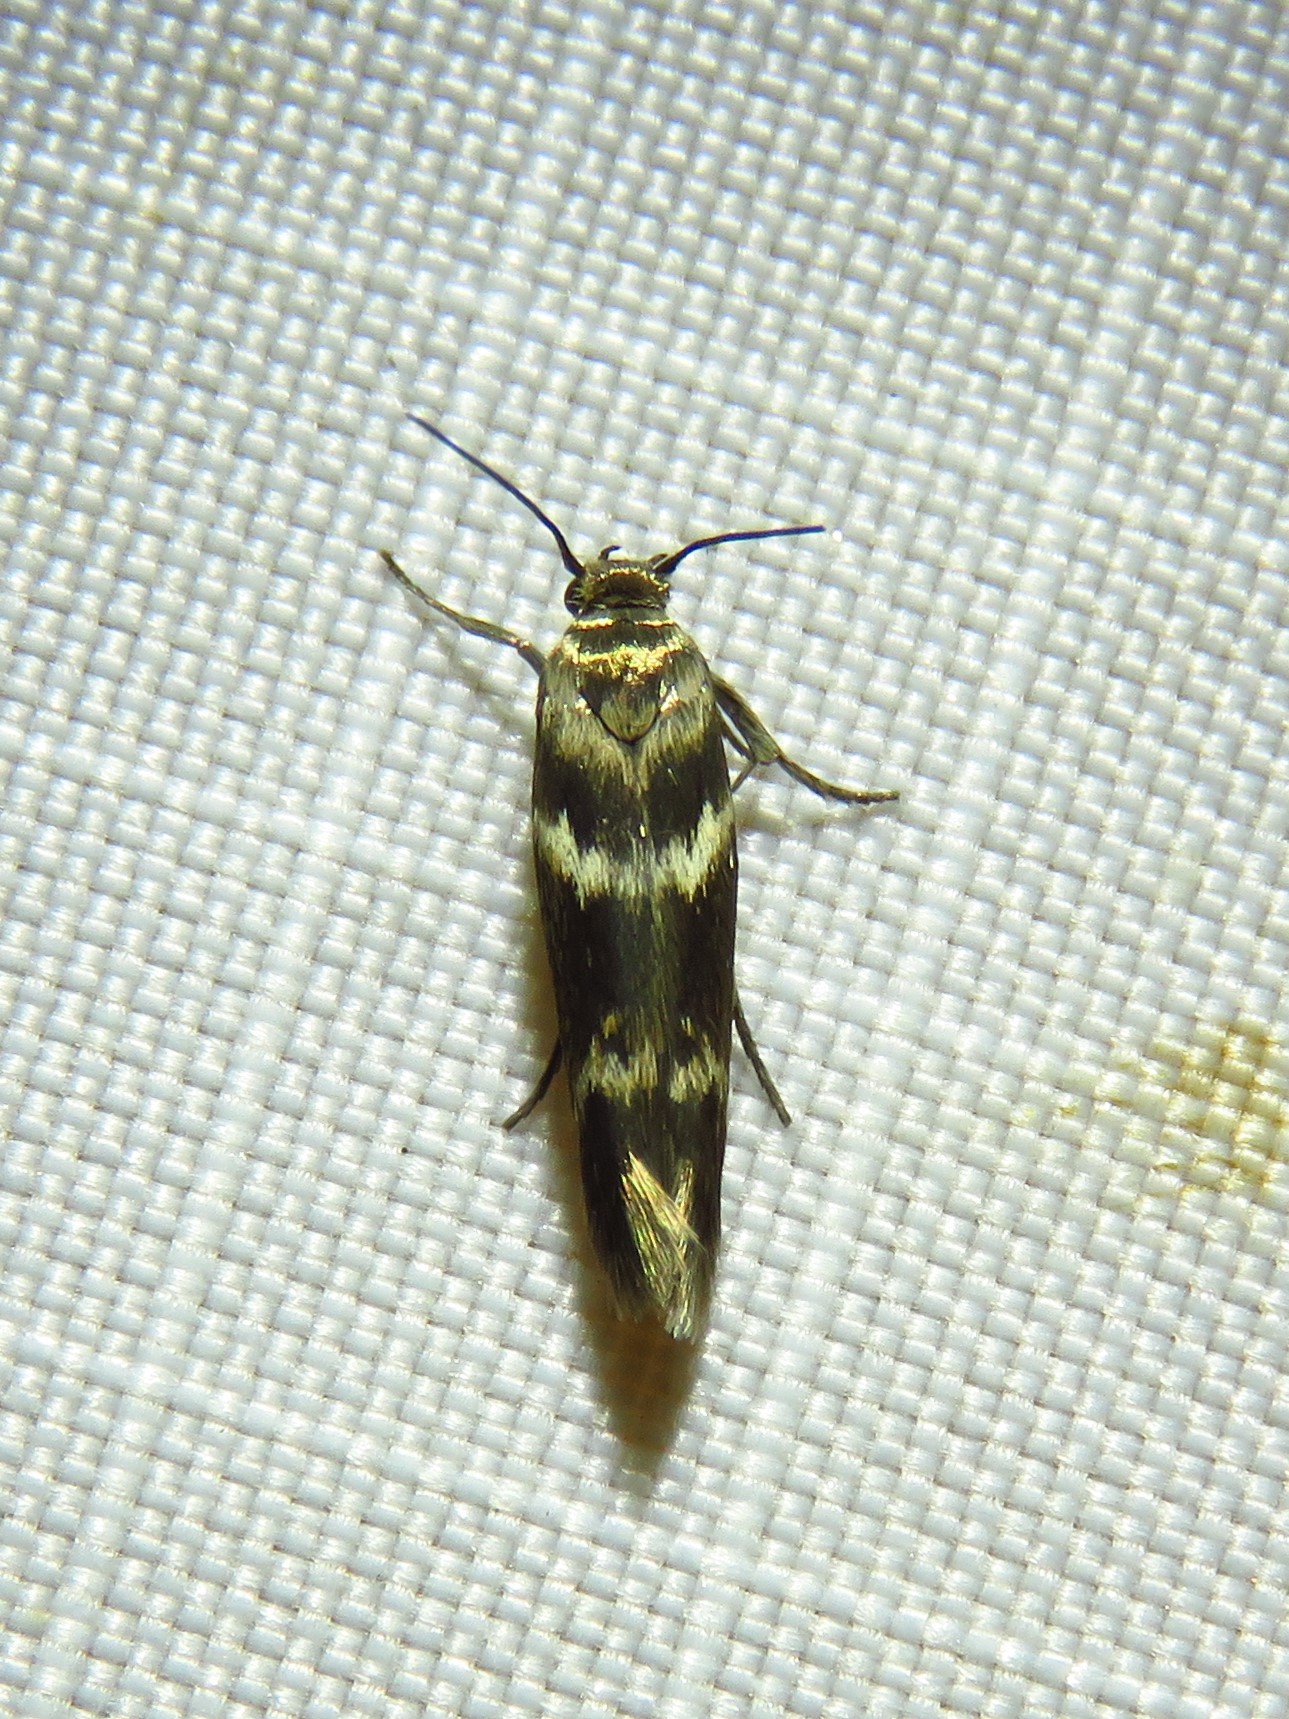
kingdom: Animalia
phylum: Arthropoda
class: Insecta
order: Lepidoptera
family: Scythrididae
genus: Scythris
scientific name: Scythris trivinctella
